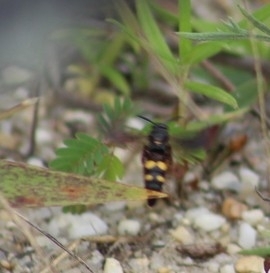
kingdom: Animalia
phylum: Arthropoda
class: Insecta
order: Hymenoptera
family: Scoliidae
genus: Scolia
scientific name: Scolia nobilitata
